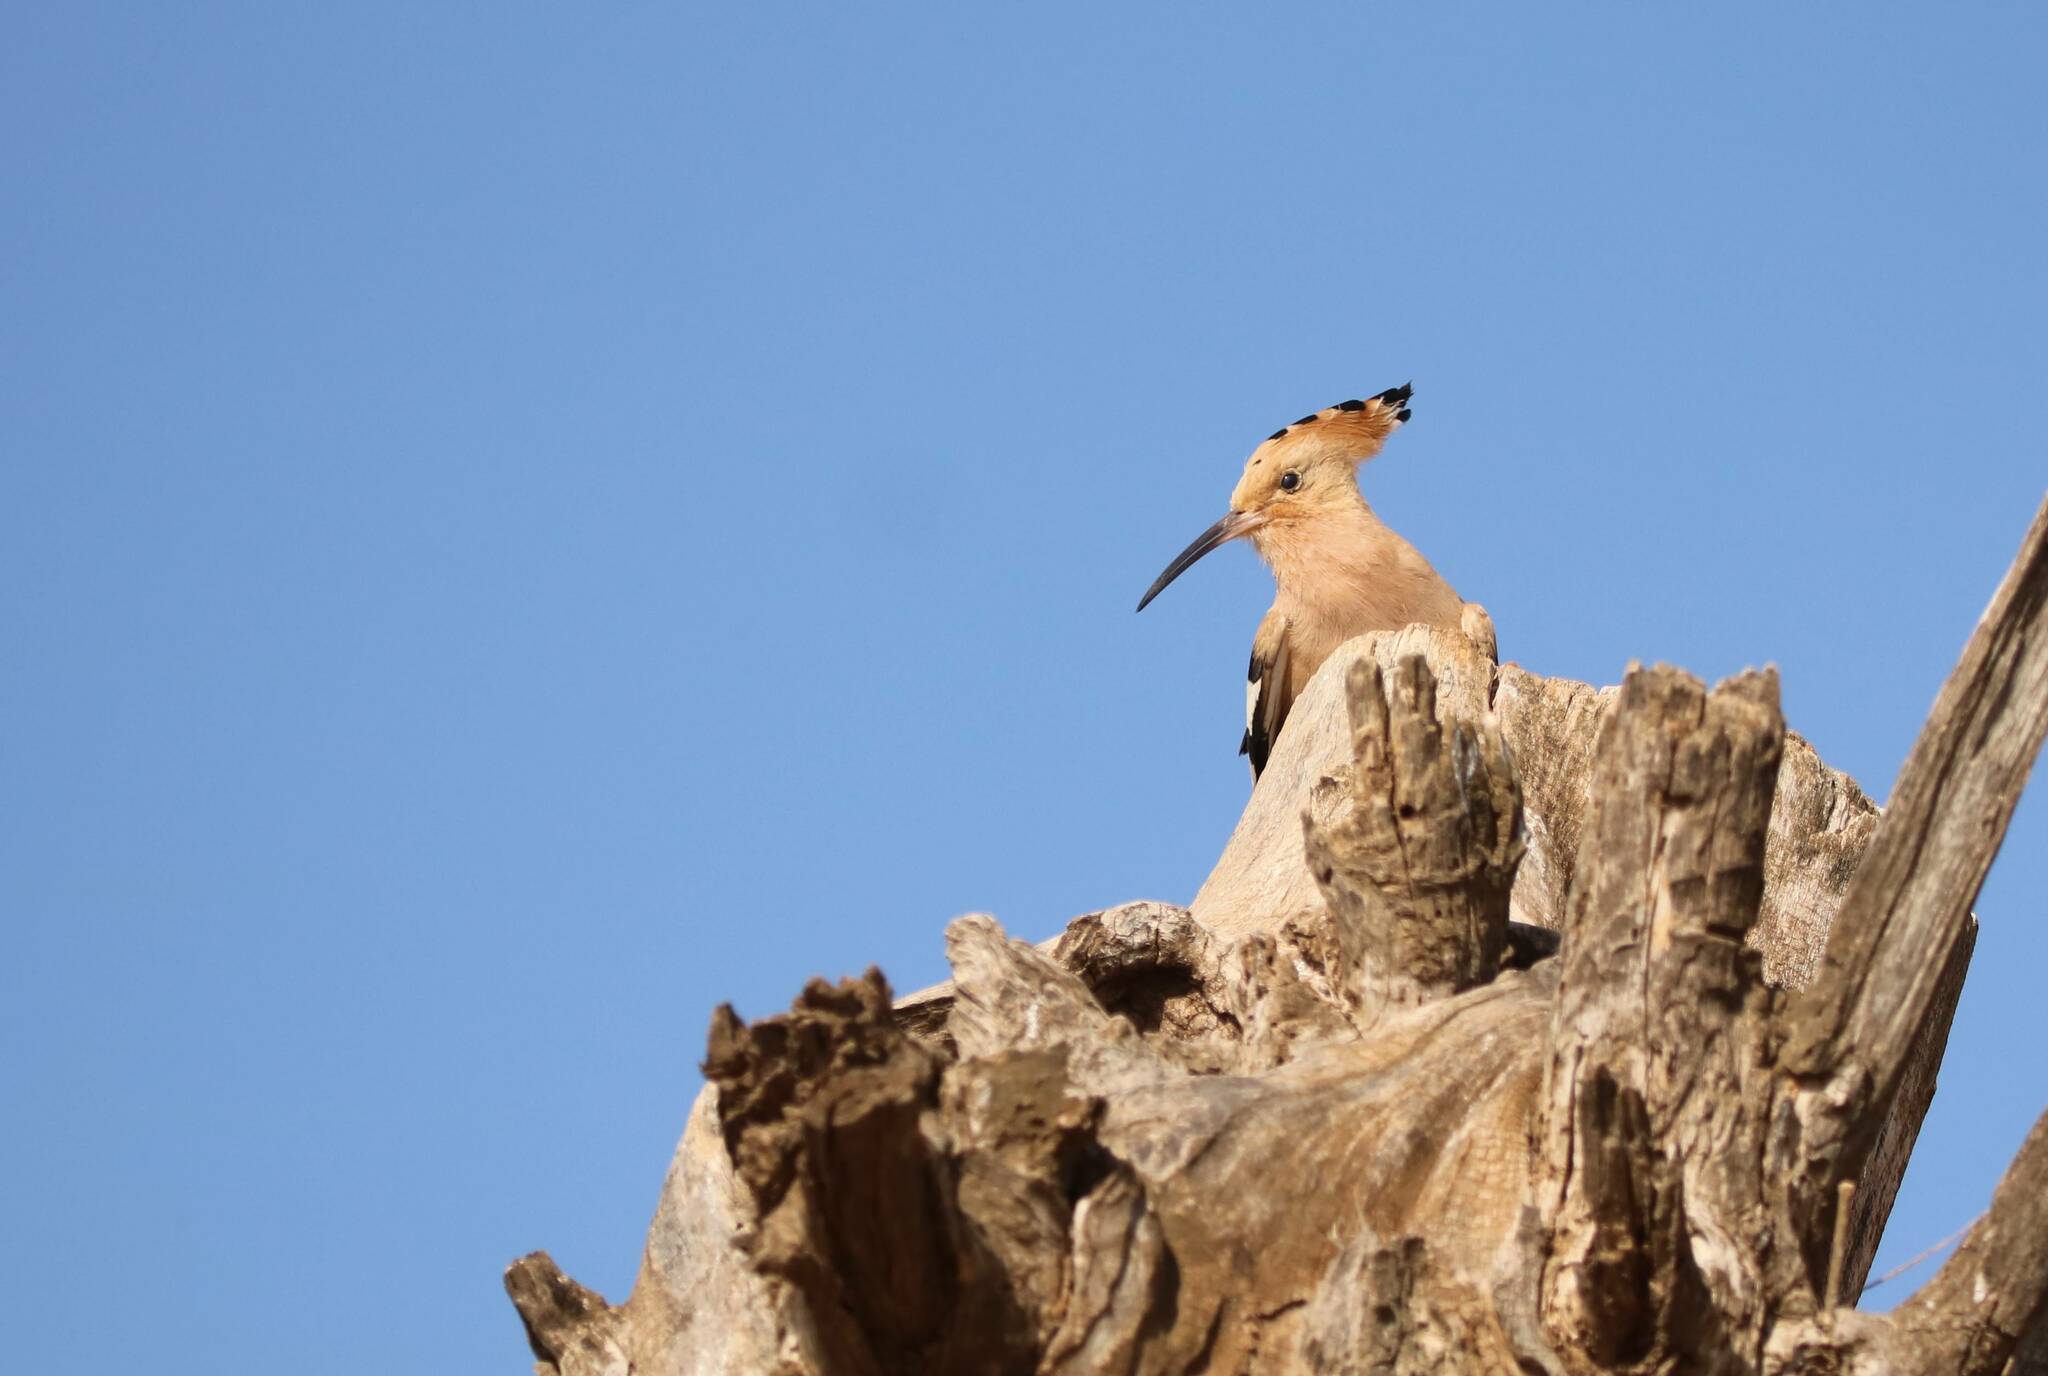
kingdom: Animalia
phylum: Chordata
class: Aves
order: Bucerotiformes
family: Upupidae
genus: Upupa
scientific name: Upupa epops
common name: Eurasian hoopoe
